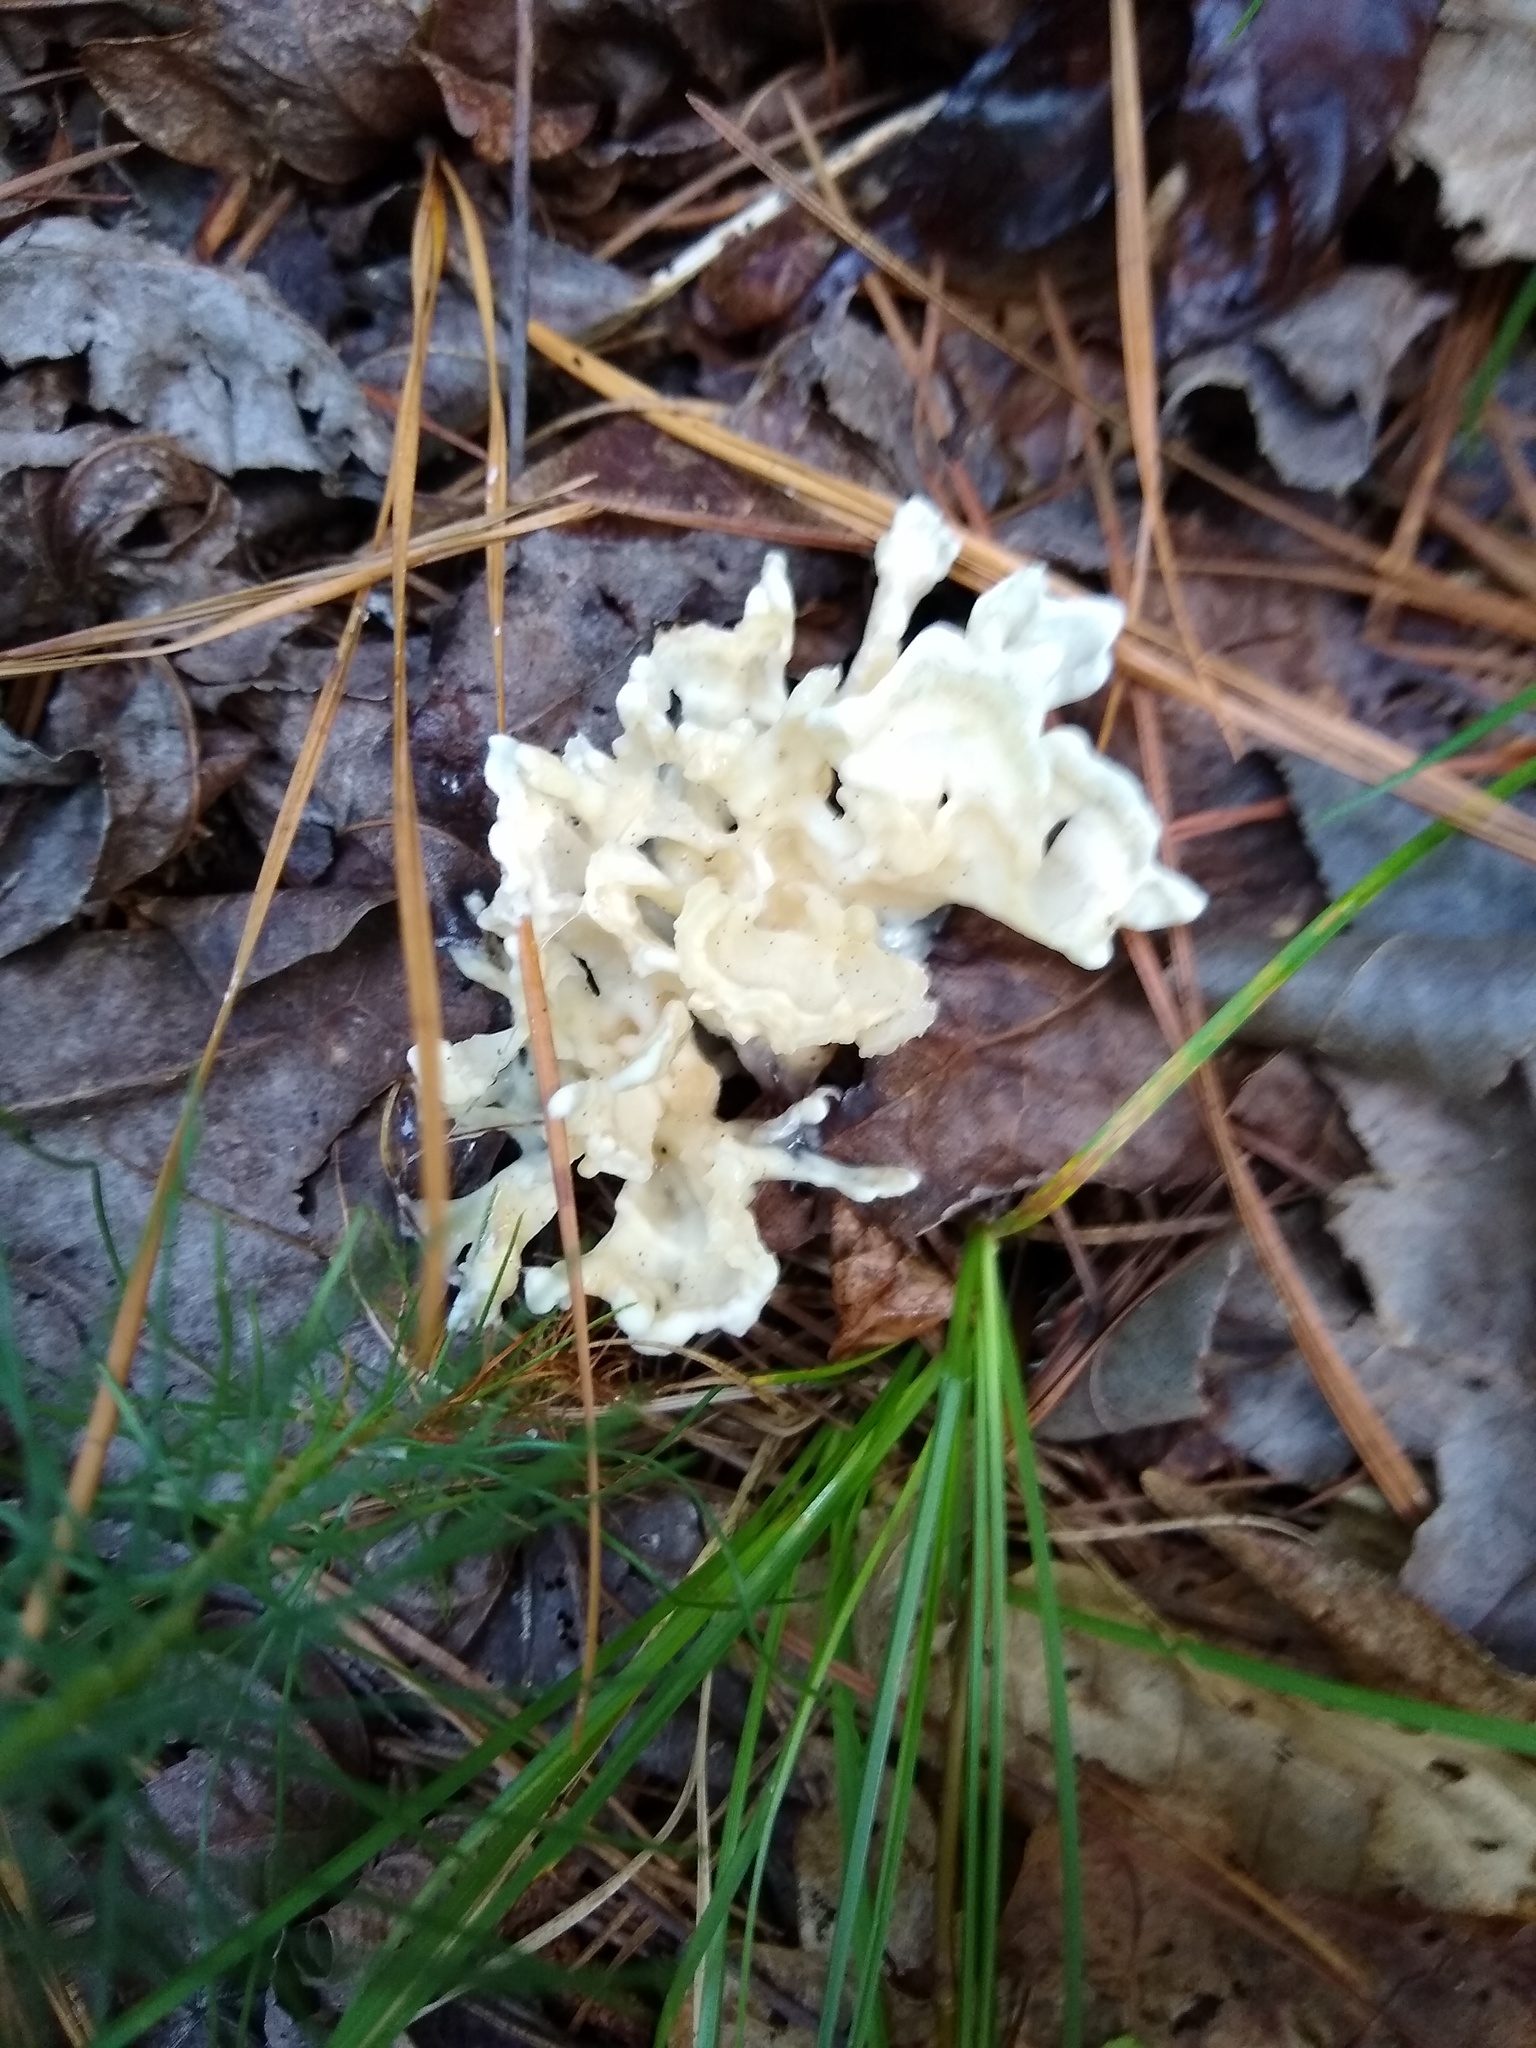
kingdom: Fungi
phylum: Basidiomycota
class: Agaricomycetes
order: Polyporales
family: Sparassidaceae
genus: Sparassis
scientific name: Sparassis spathulata
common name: Eastern cauliflower mushroom
